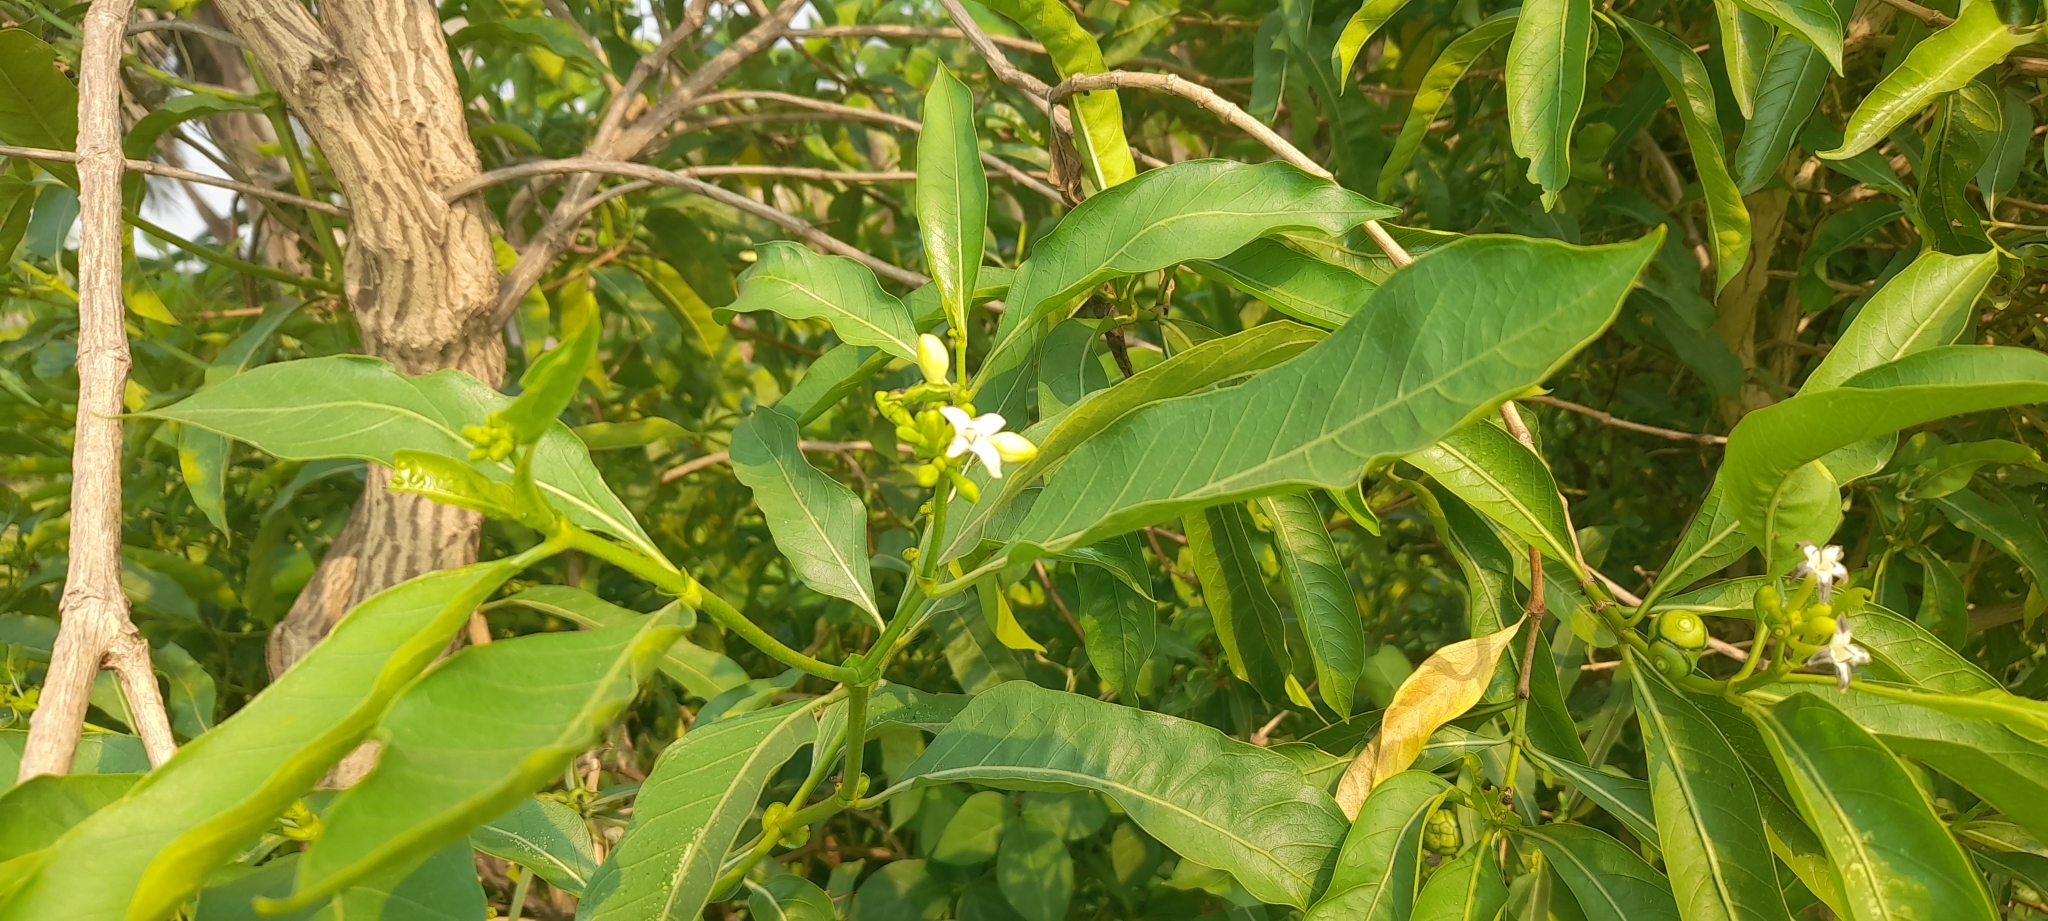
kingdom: Plantae
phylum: Tracheophyta
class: Magnoliopsida
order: Gentianales
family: Rubiaceae
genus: Morinda
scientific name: Morinda coreia
